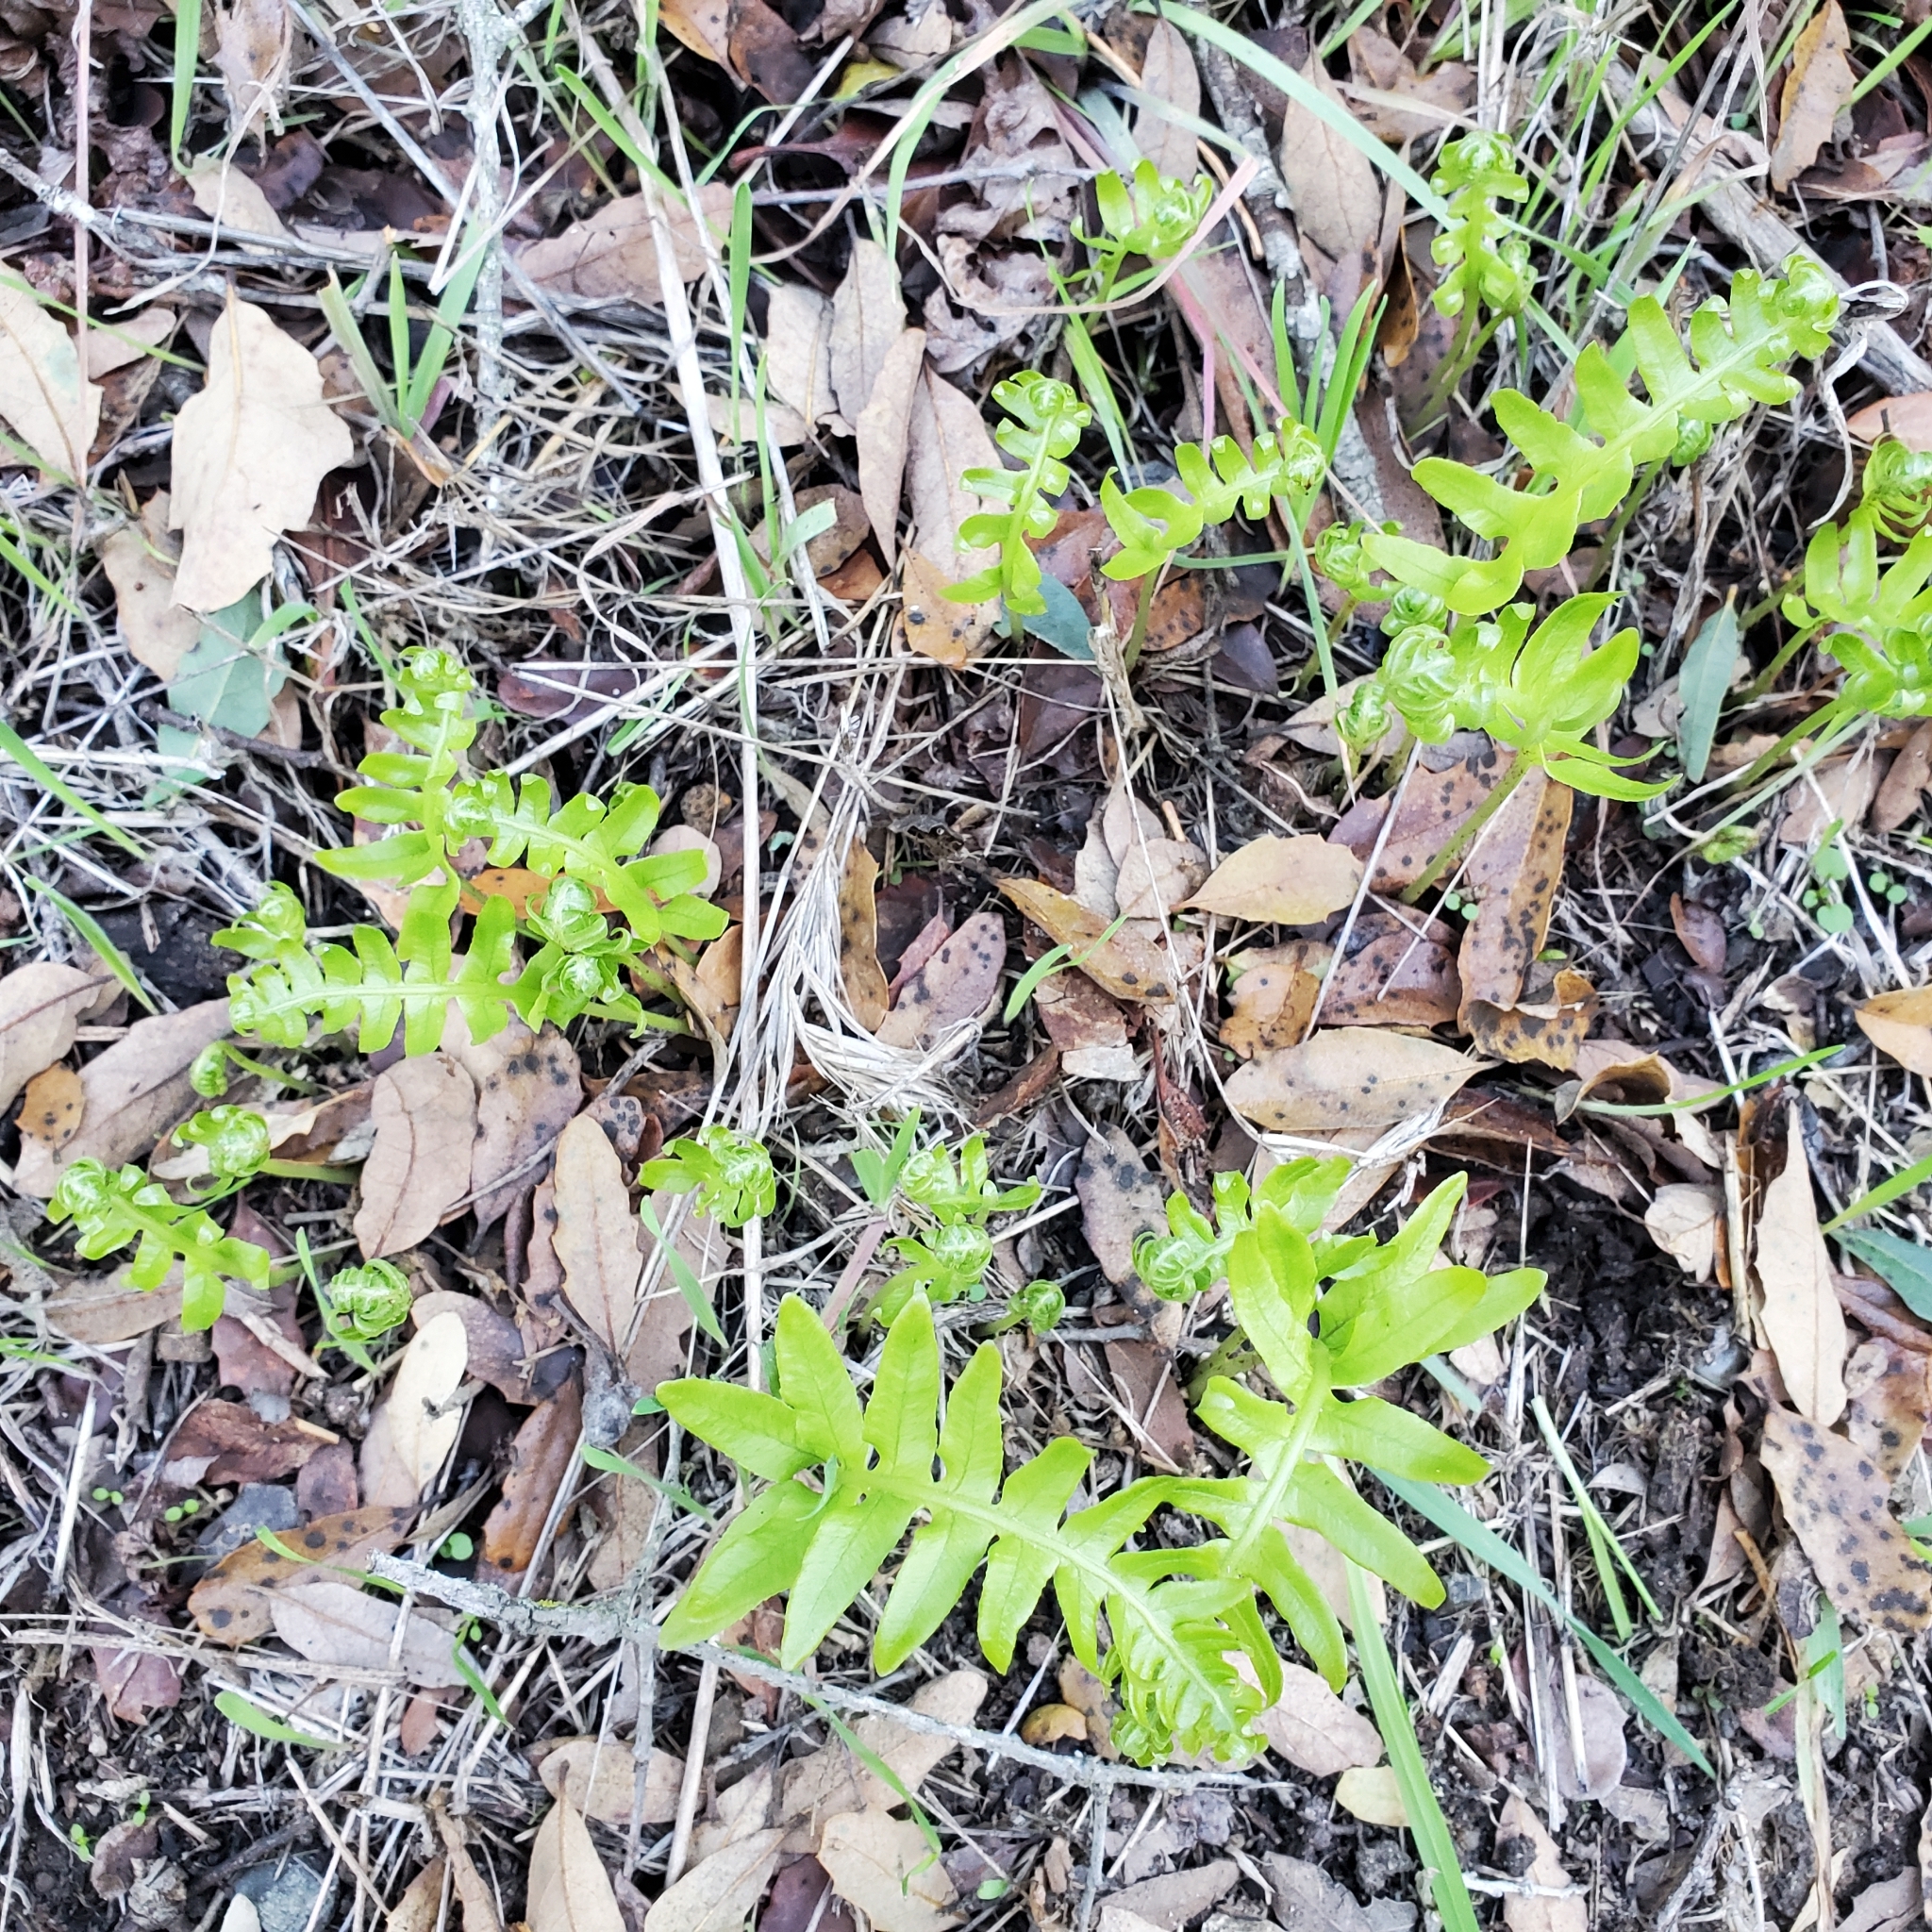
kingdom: Plantae
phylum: Tracheophyta
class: Polypodiopsida
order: Polypodiales
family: Polypodiaceae
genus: Polypodium
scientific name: Polypodium californicum
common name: California polypody
